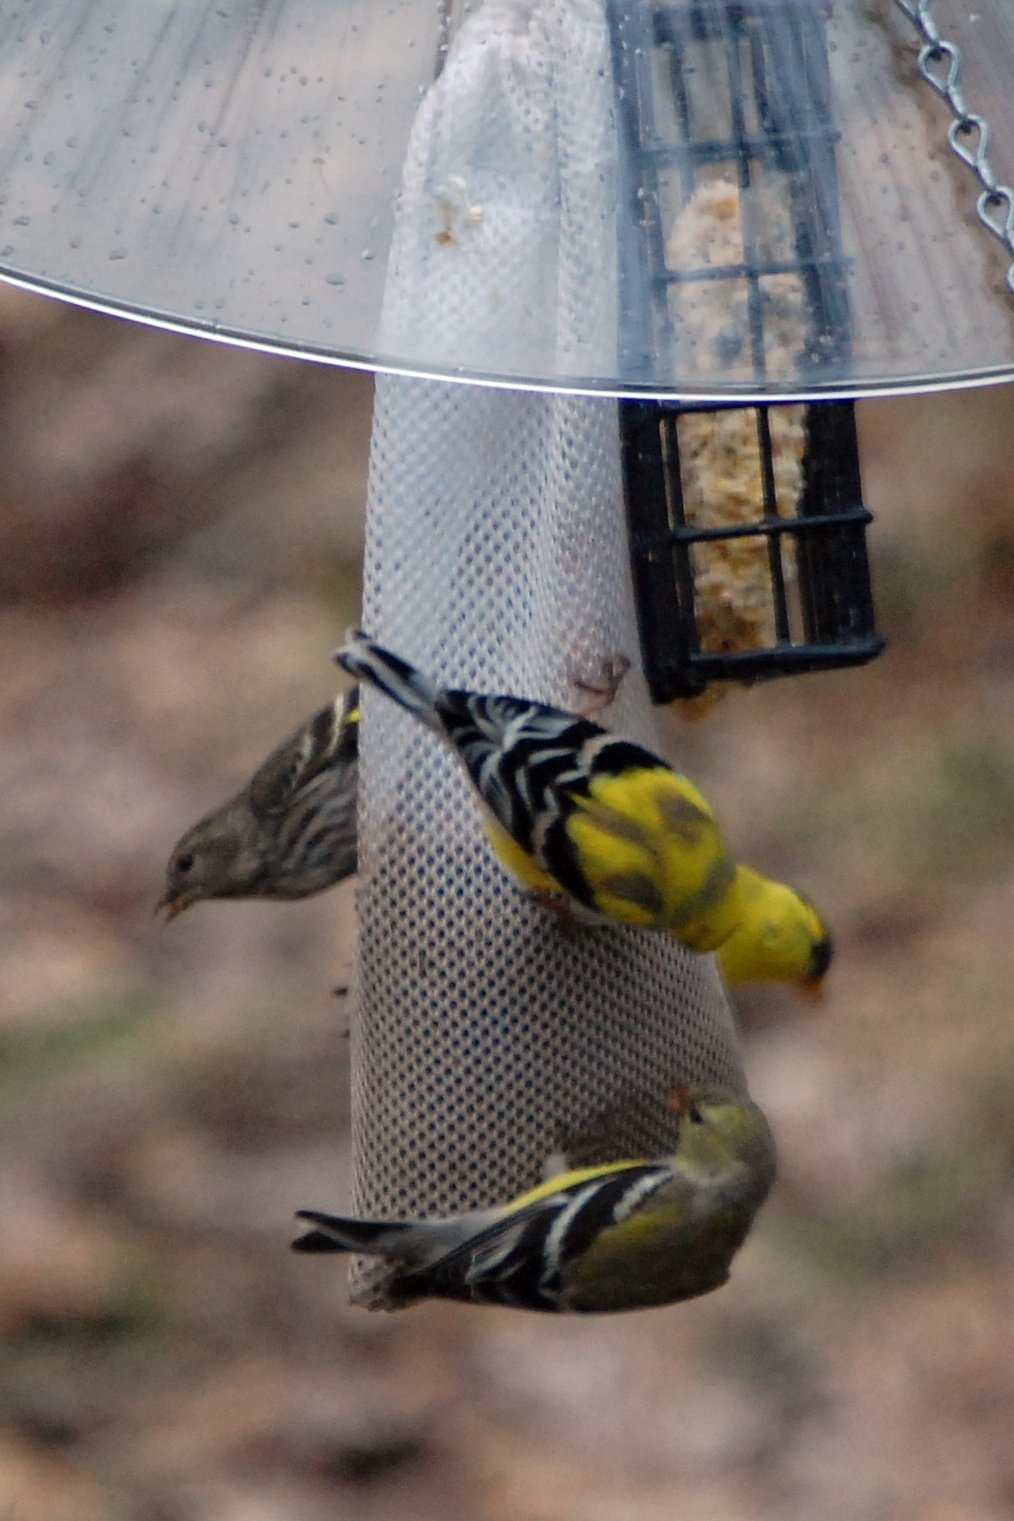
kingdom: Animalia
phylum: Chordata
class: Aves
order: Passeriformes
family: Fringillidae
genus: Spinus
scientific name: Spinus pinus
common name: Pine siskin
